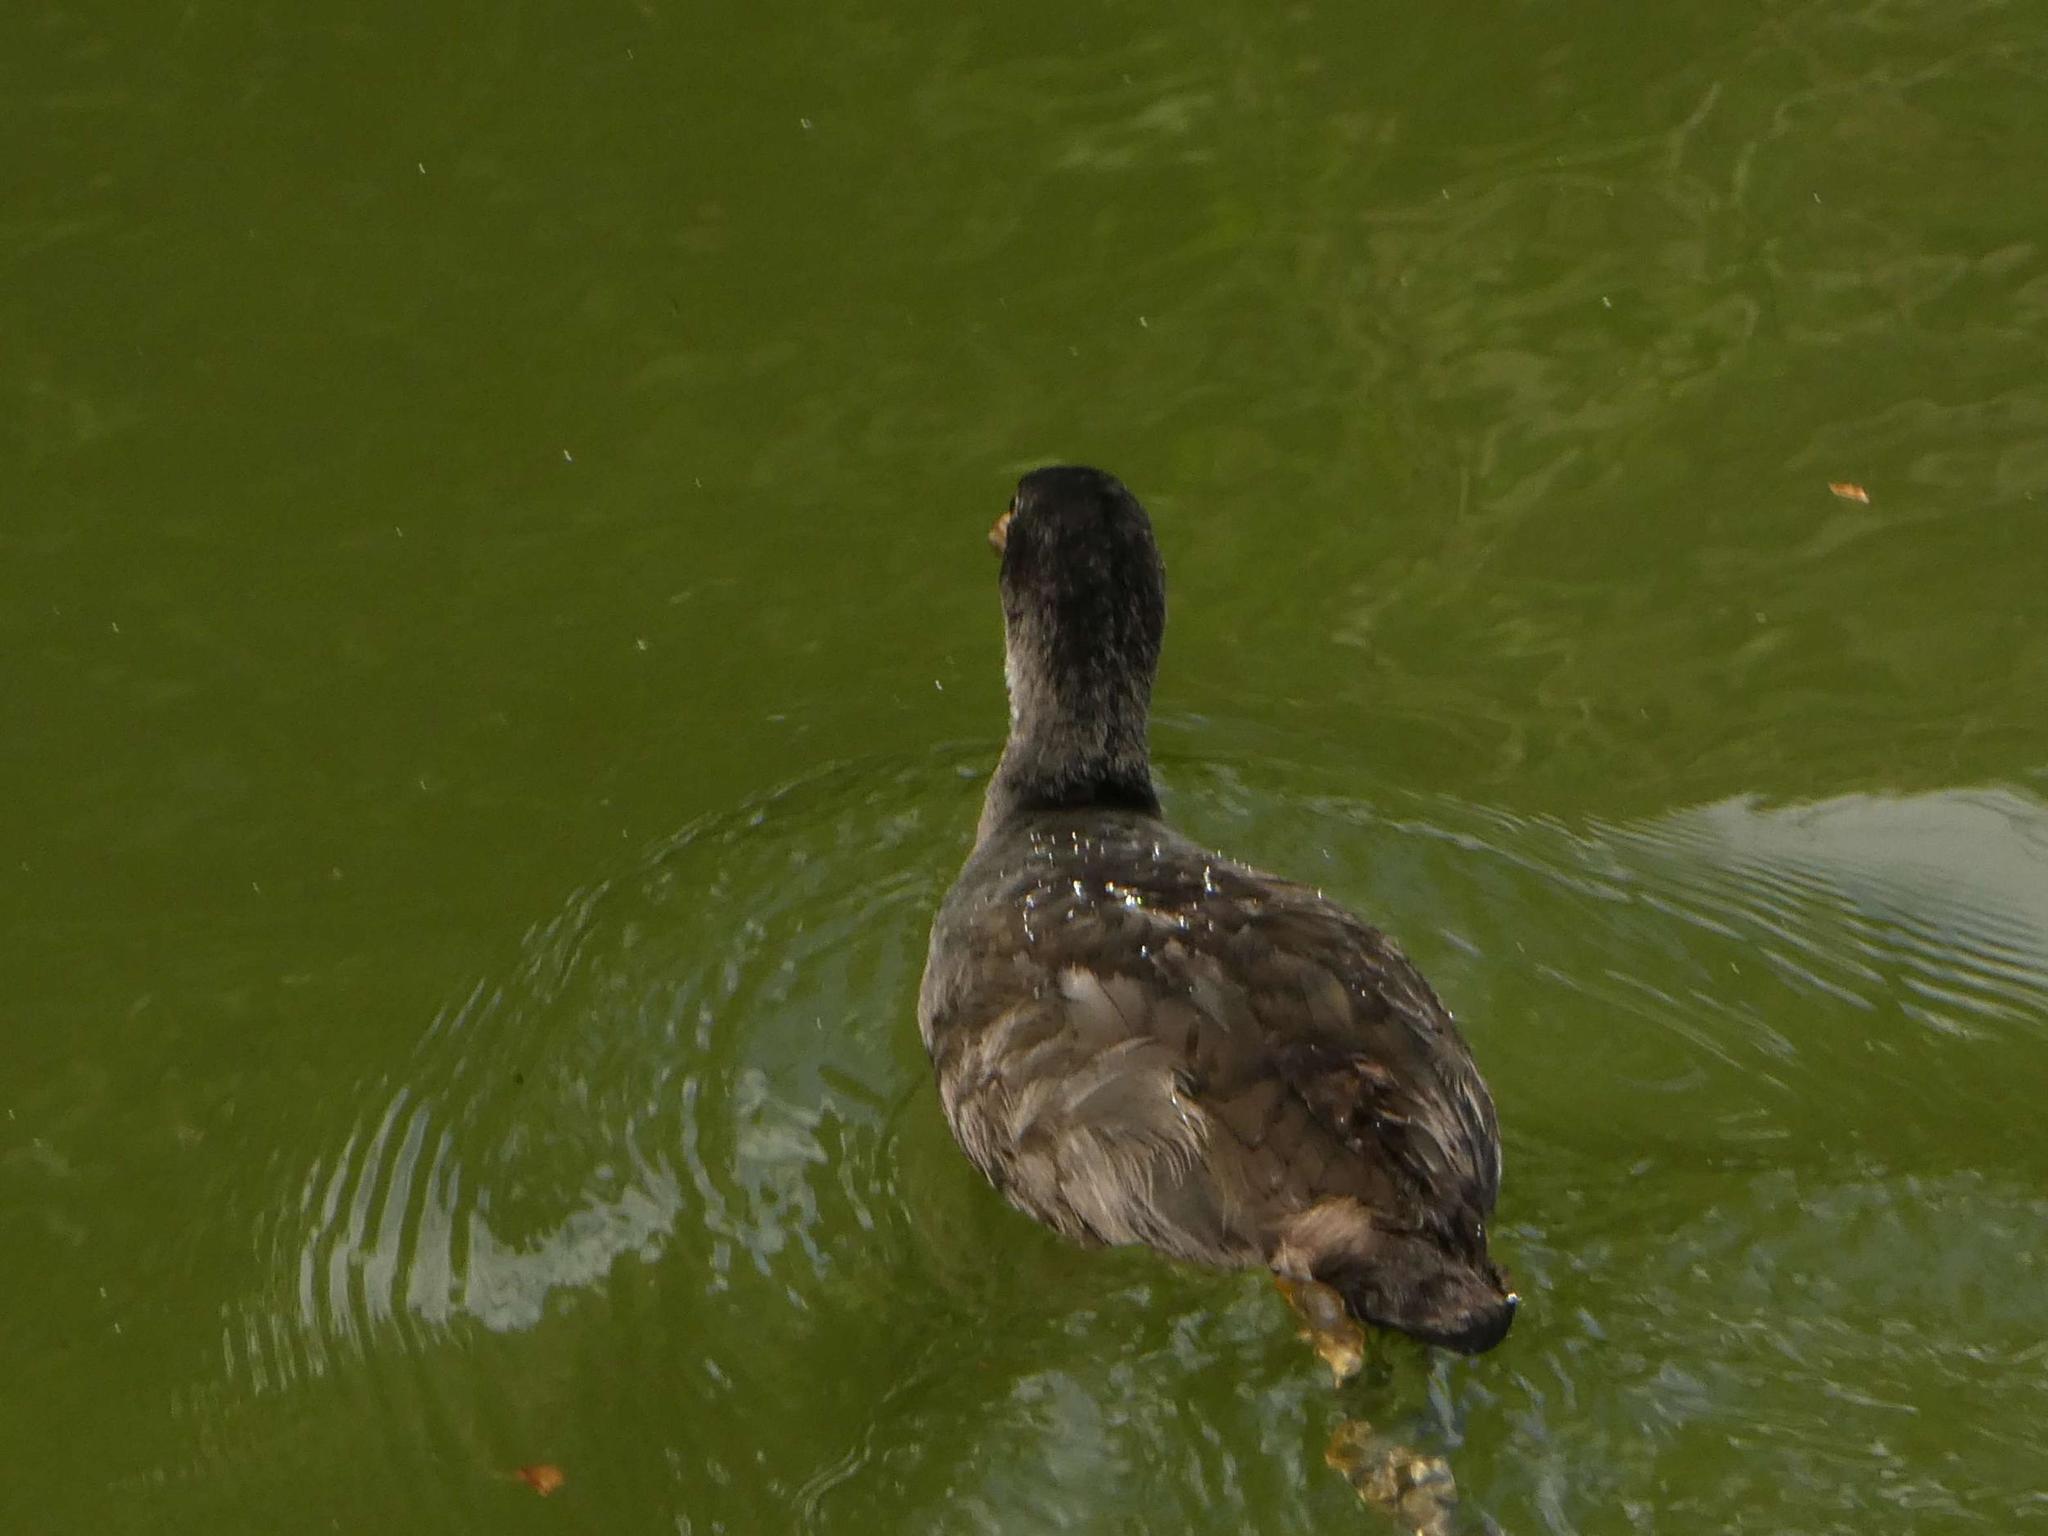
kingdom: Animalia
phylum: Chordata
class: Aves
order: Gruiformes
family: Rallidae
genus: Fulica
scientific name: Fulica atra
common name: Eurasian coot
